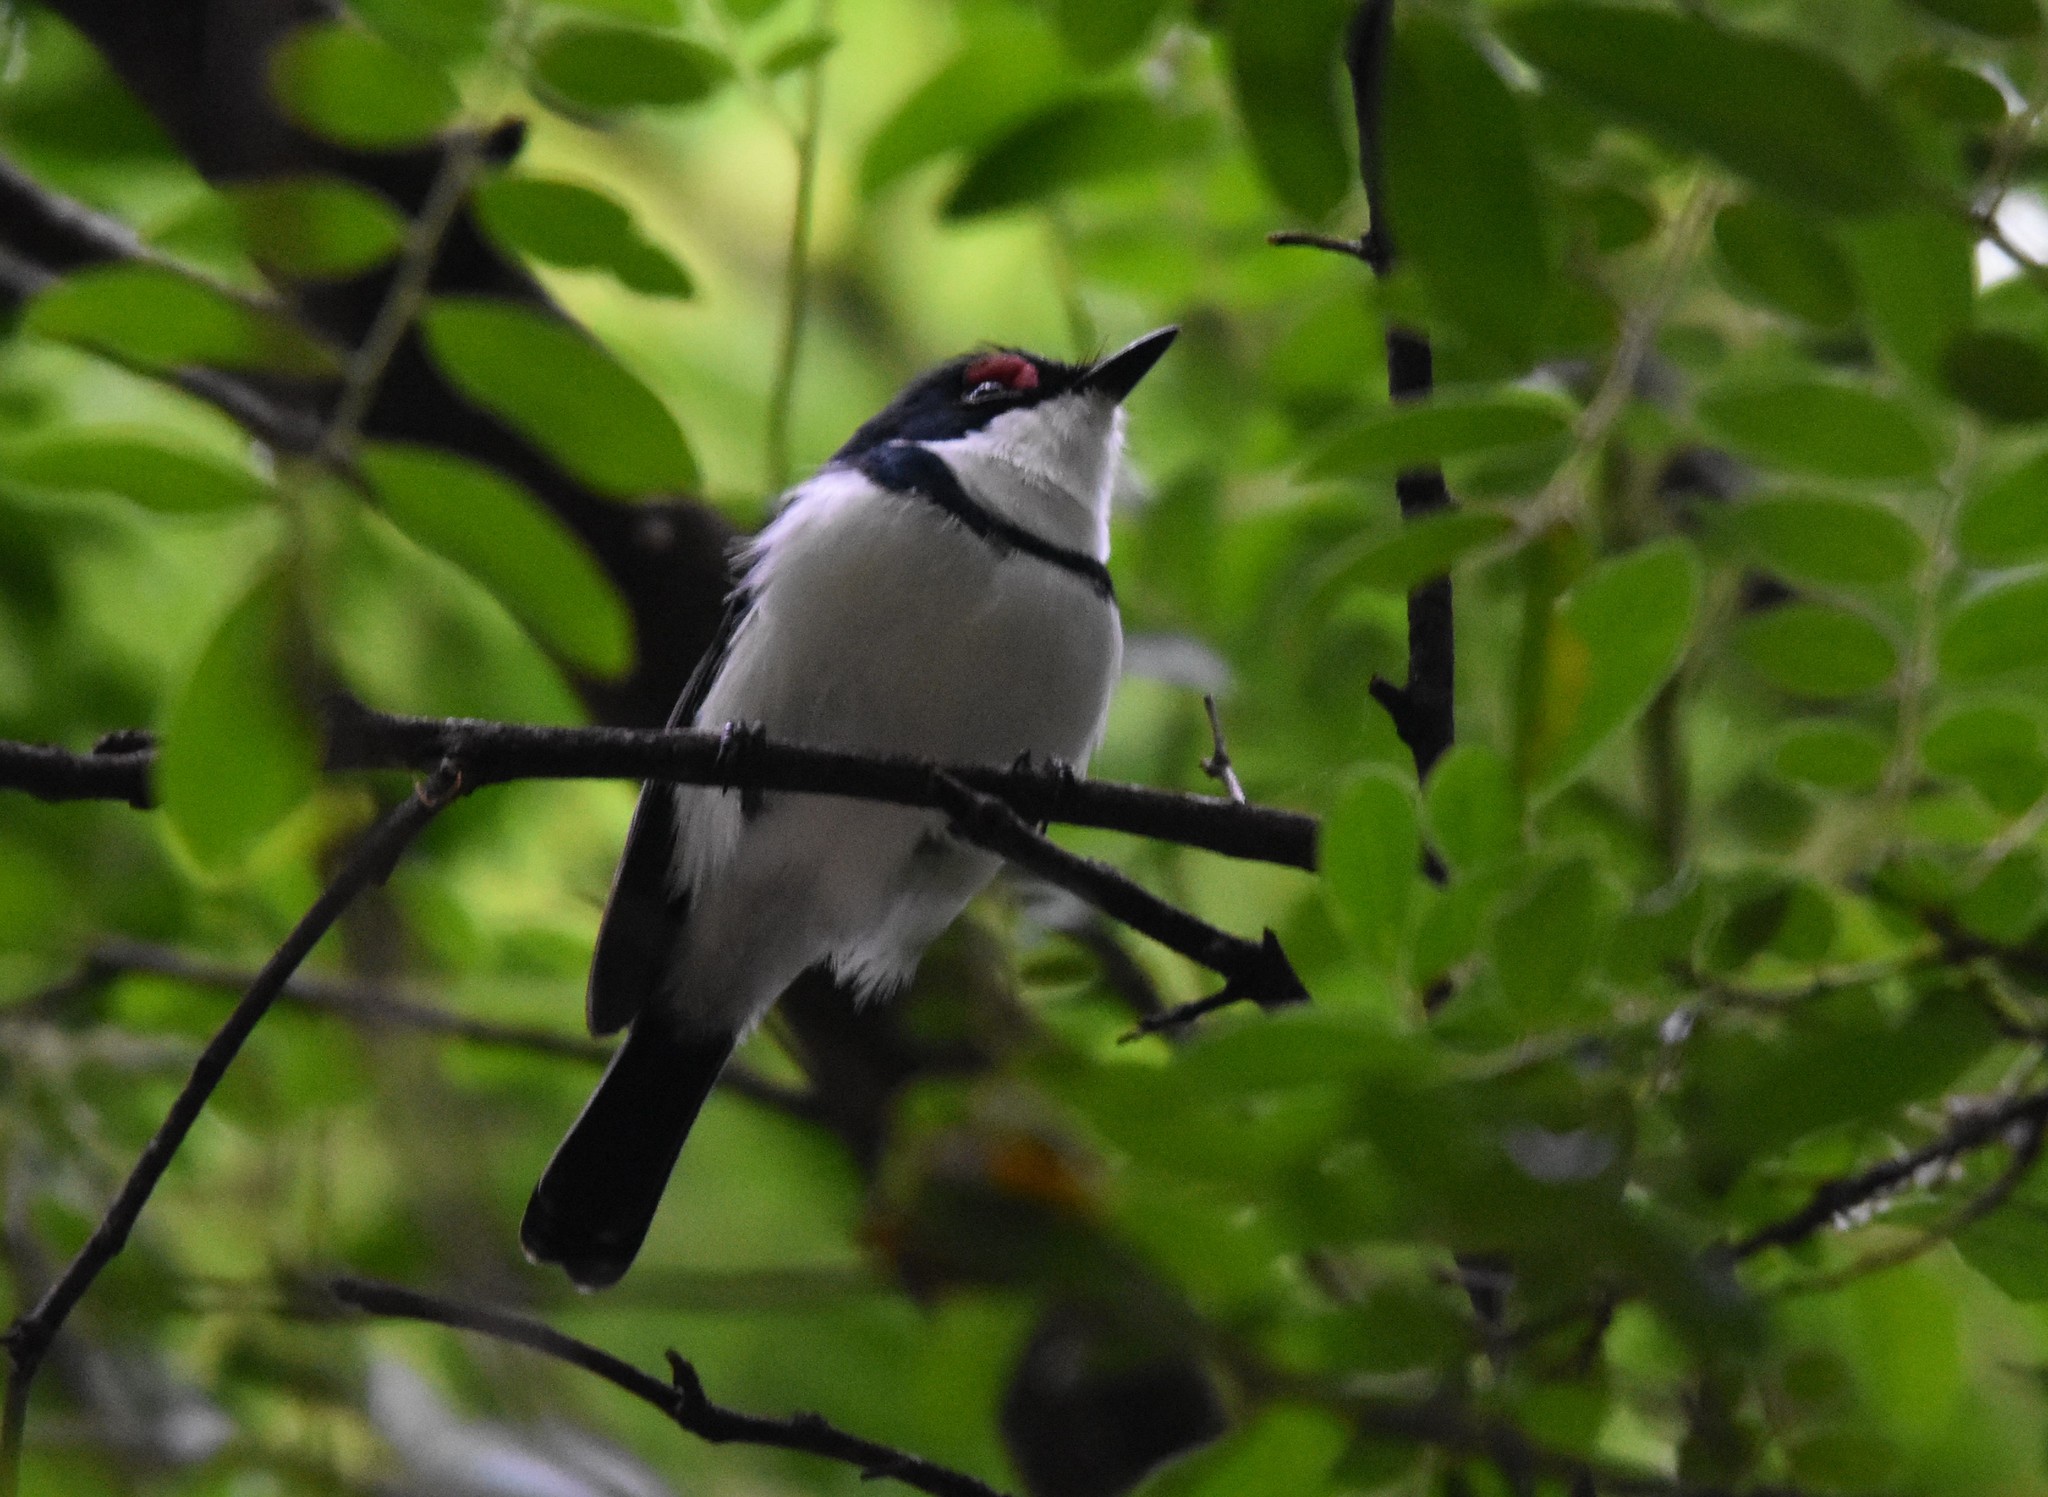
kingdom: Animalia
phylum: Chordata
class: Aves
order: Passeriformes
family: Platysteiridae
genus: Platysteira
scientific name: Platysteira peltata
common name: Black-throated wattle-eye
